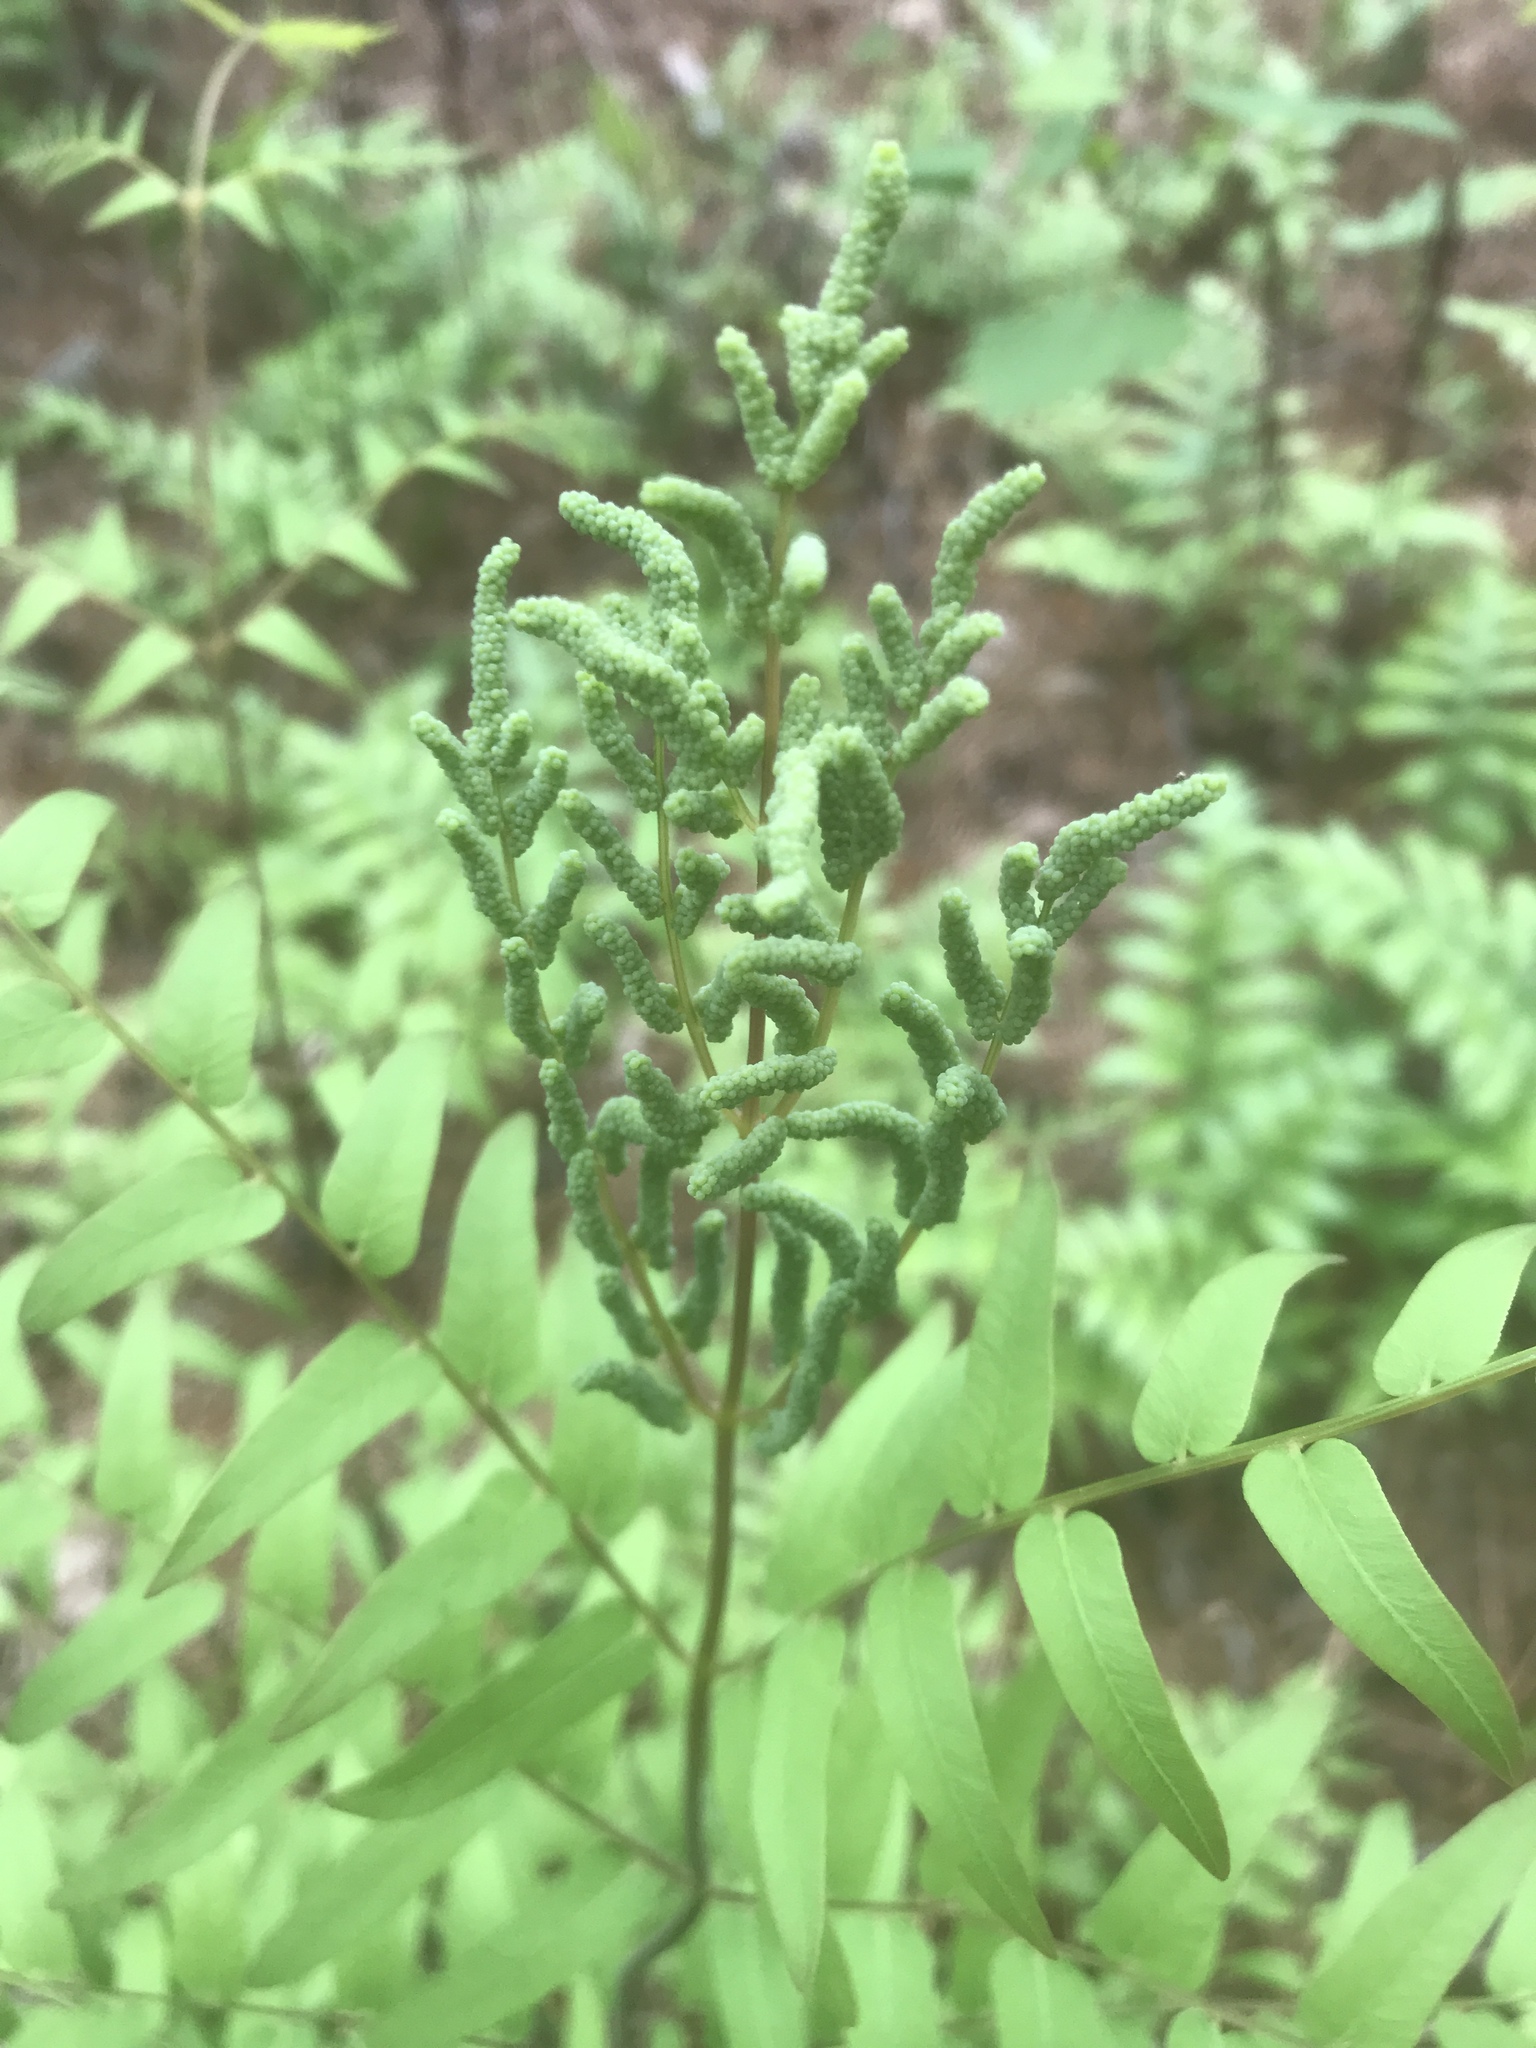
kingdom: Plantae
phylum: Tracheophyta
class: Polypodiopsida
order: Osmundales
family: Osmundaceae
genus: Osmunda
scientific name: Osmunda spectabilis
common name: American royal fern
